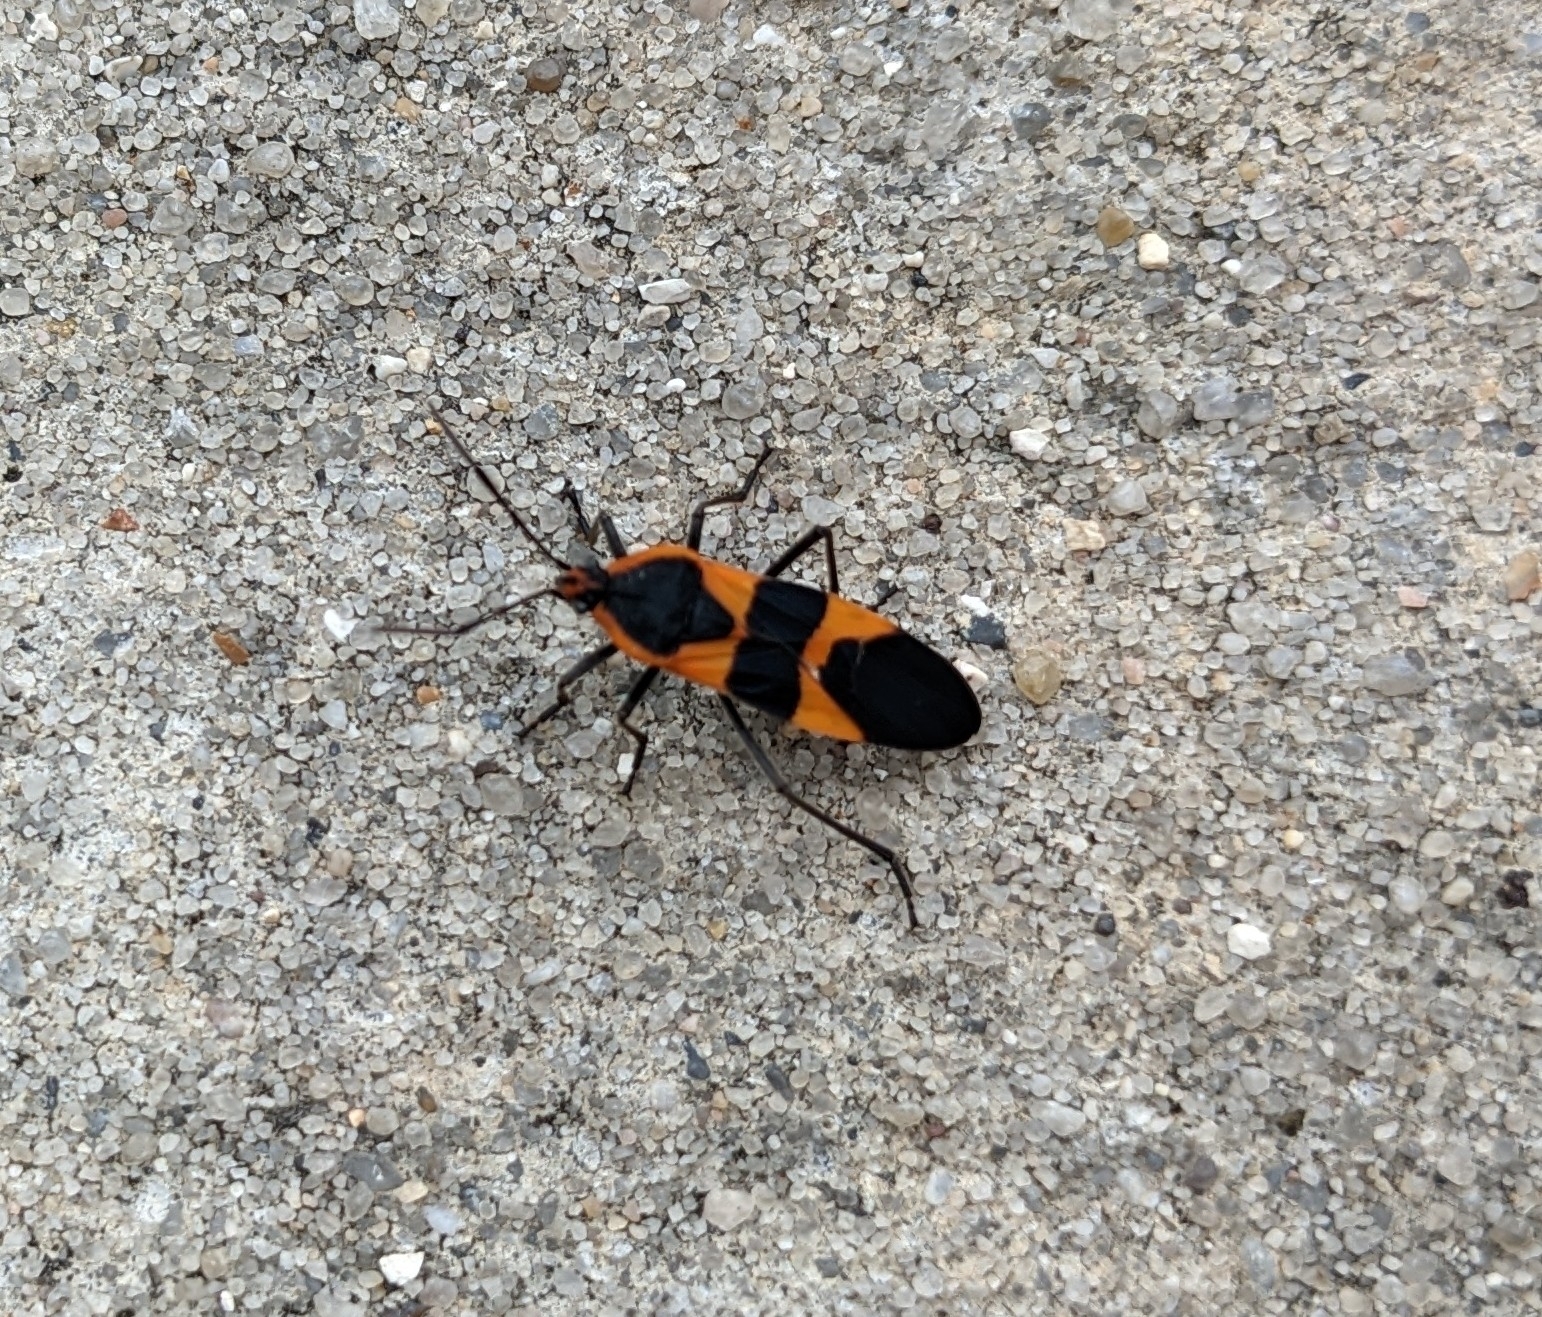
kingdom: Animalia
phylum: Arthropoda
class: Insecta
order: Hemiptera
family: Lygaeidae
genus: Oncopeltus
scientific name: Oncopeltus fasciatus
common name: Large milkweed bug
